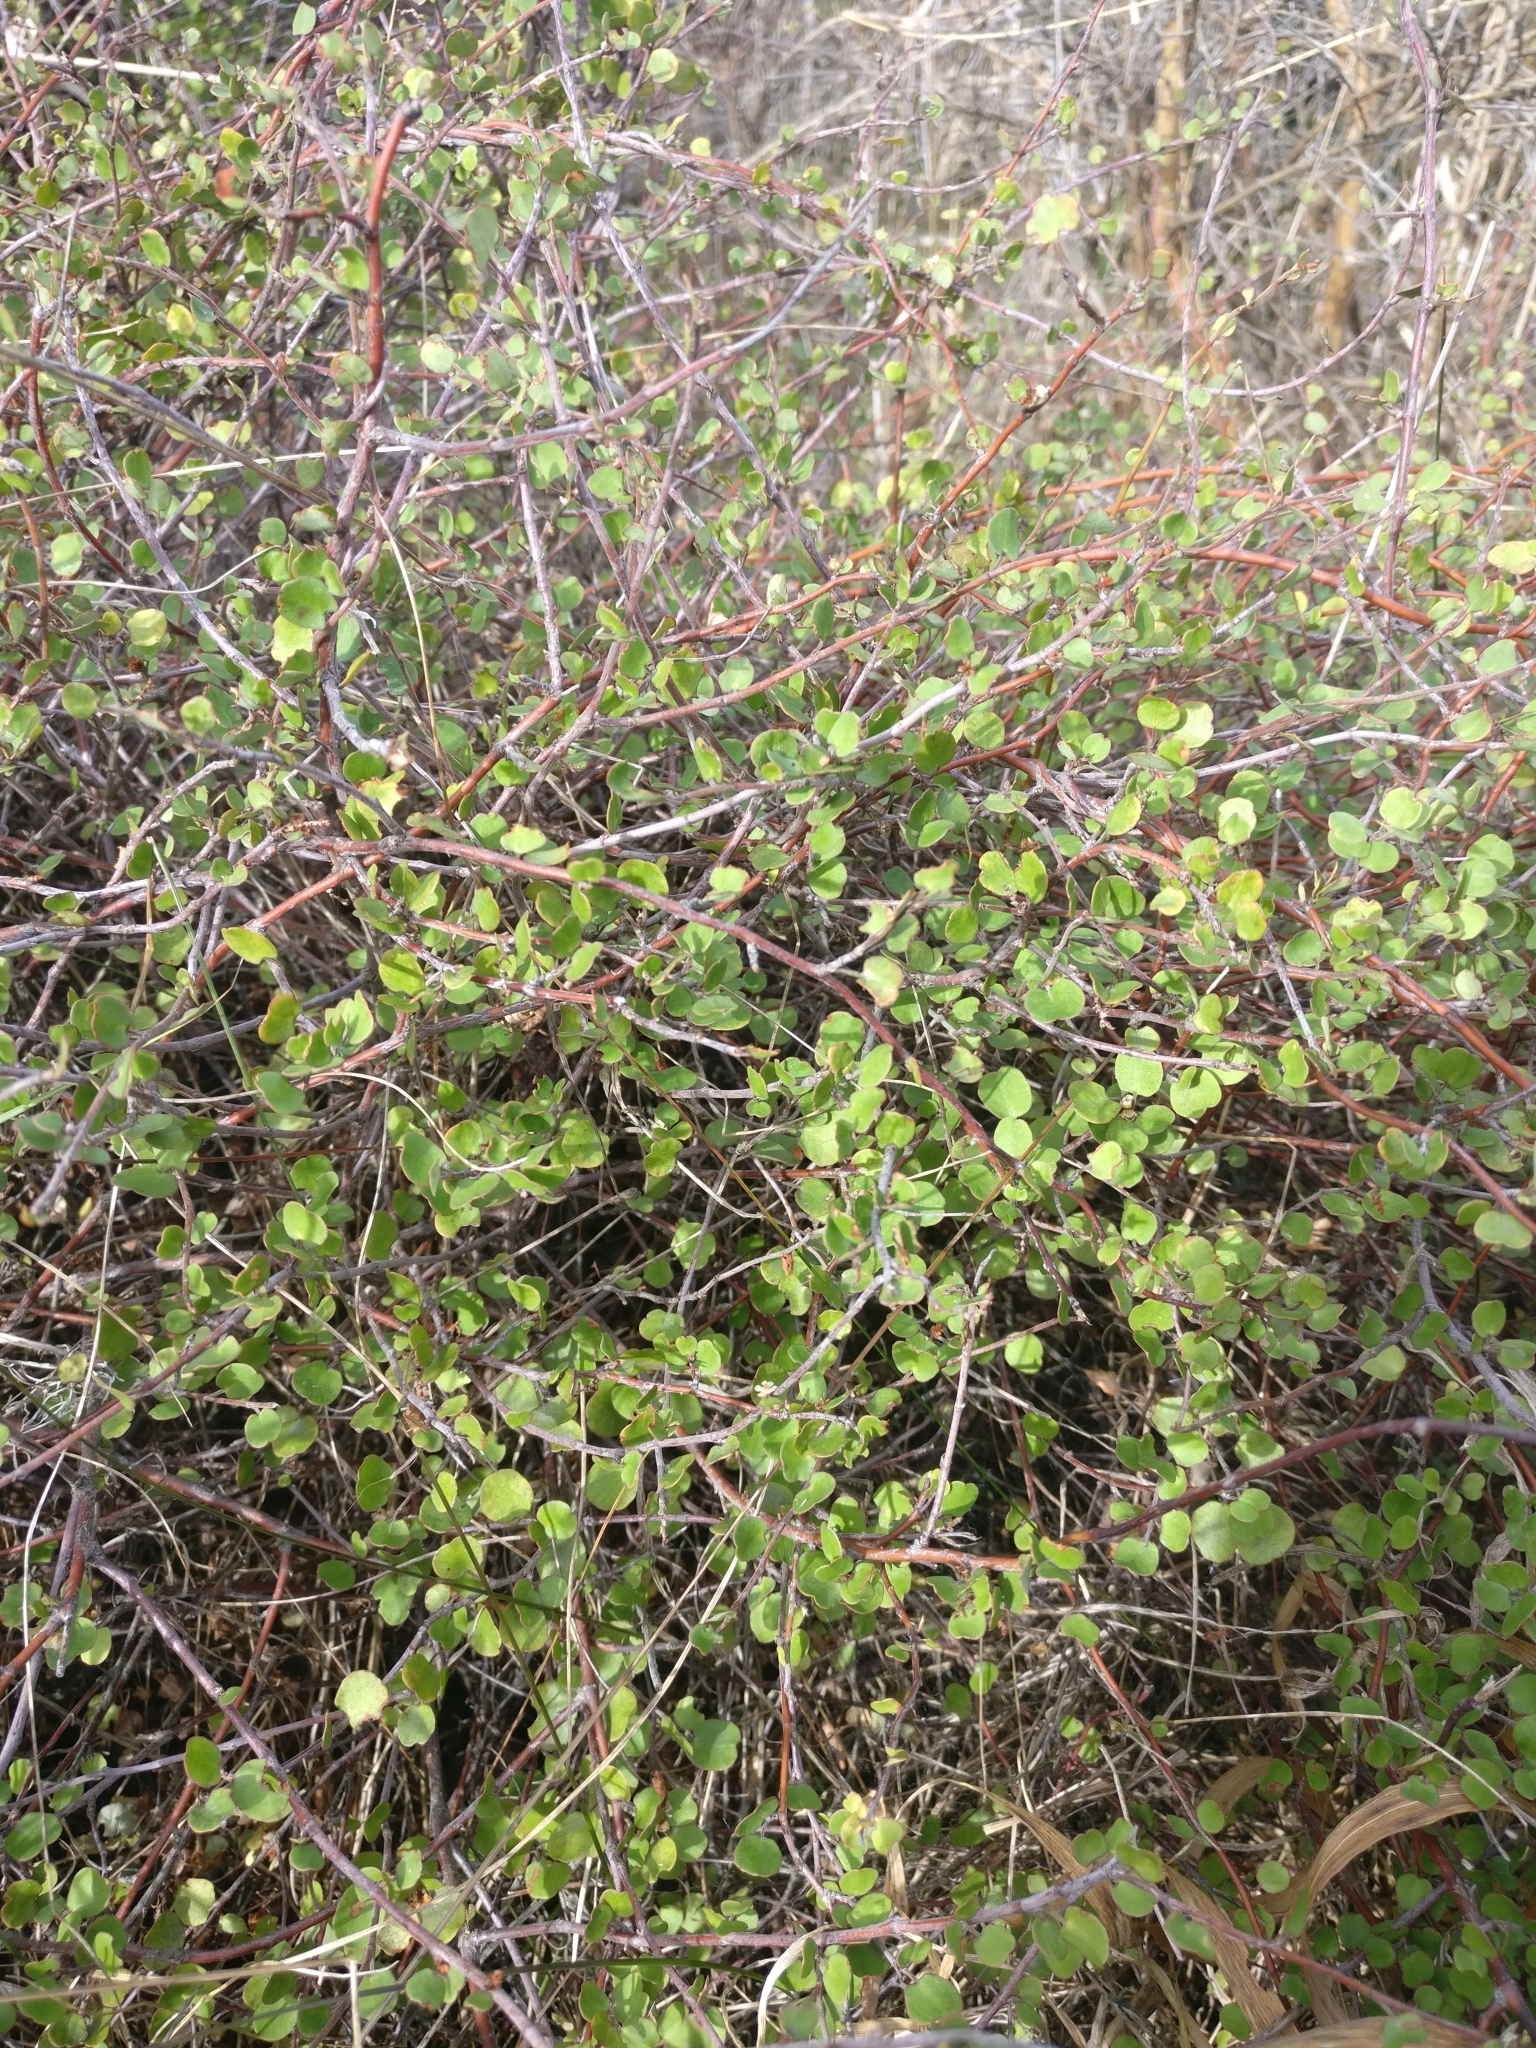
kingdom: Plantae
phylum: Tracheophyta
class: Magnoliopsida
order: Caryophyllales
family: Polygonaceae
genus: Muehlenbeckia
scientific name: Muehlenbeckia complexa
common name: Wireplant
